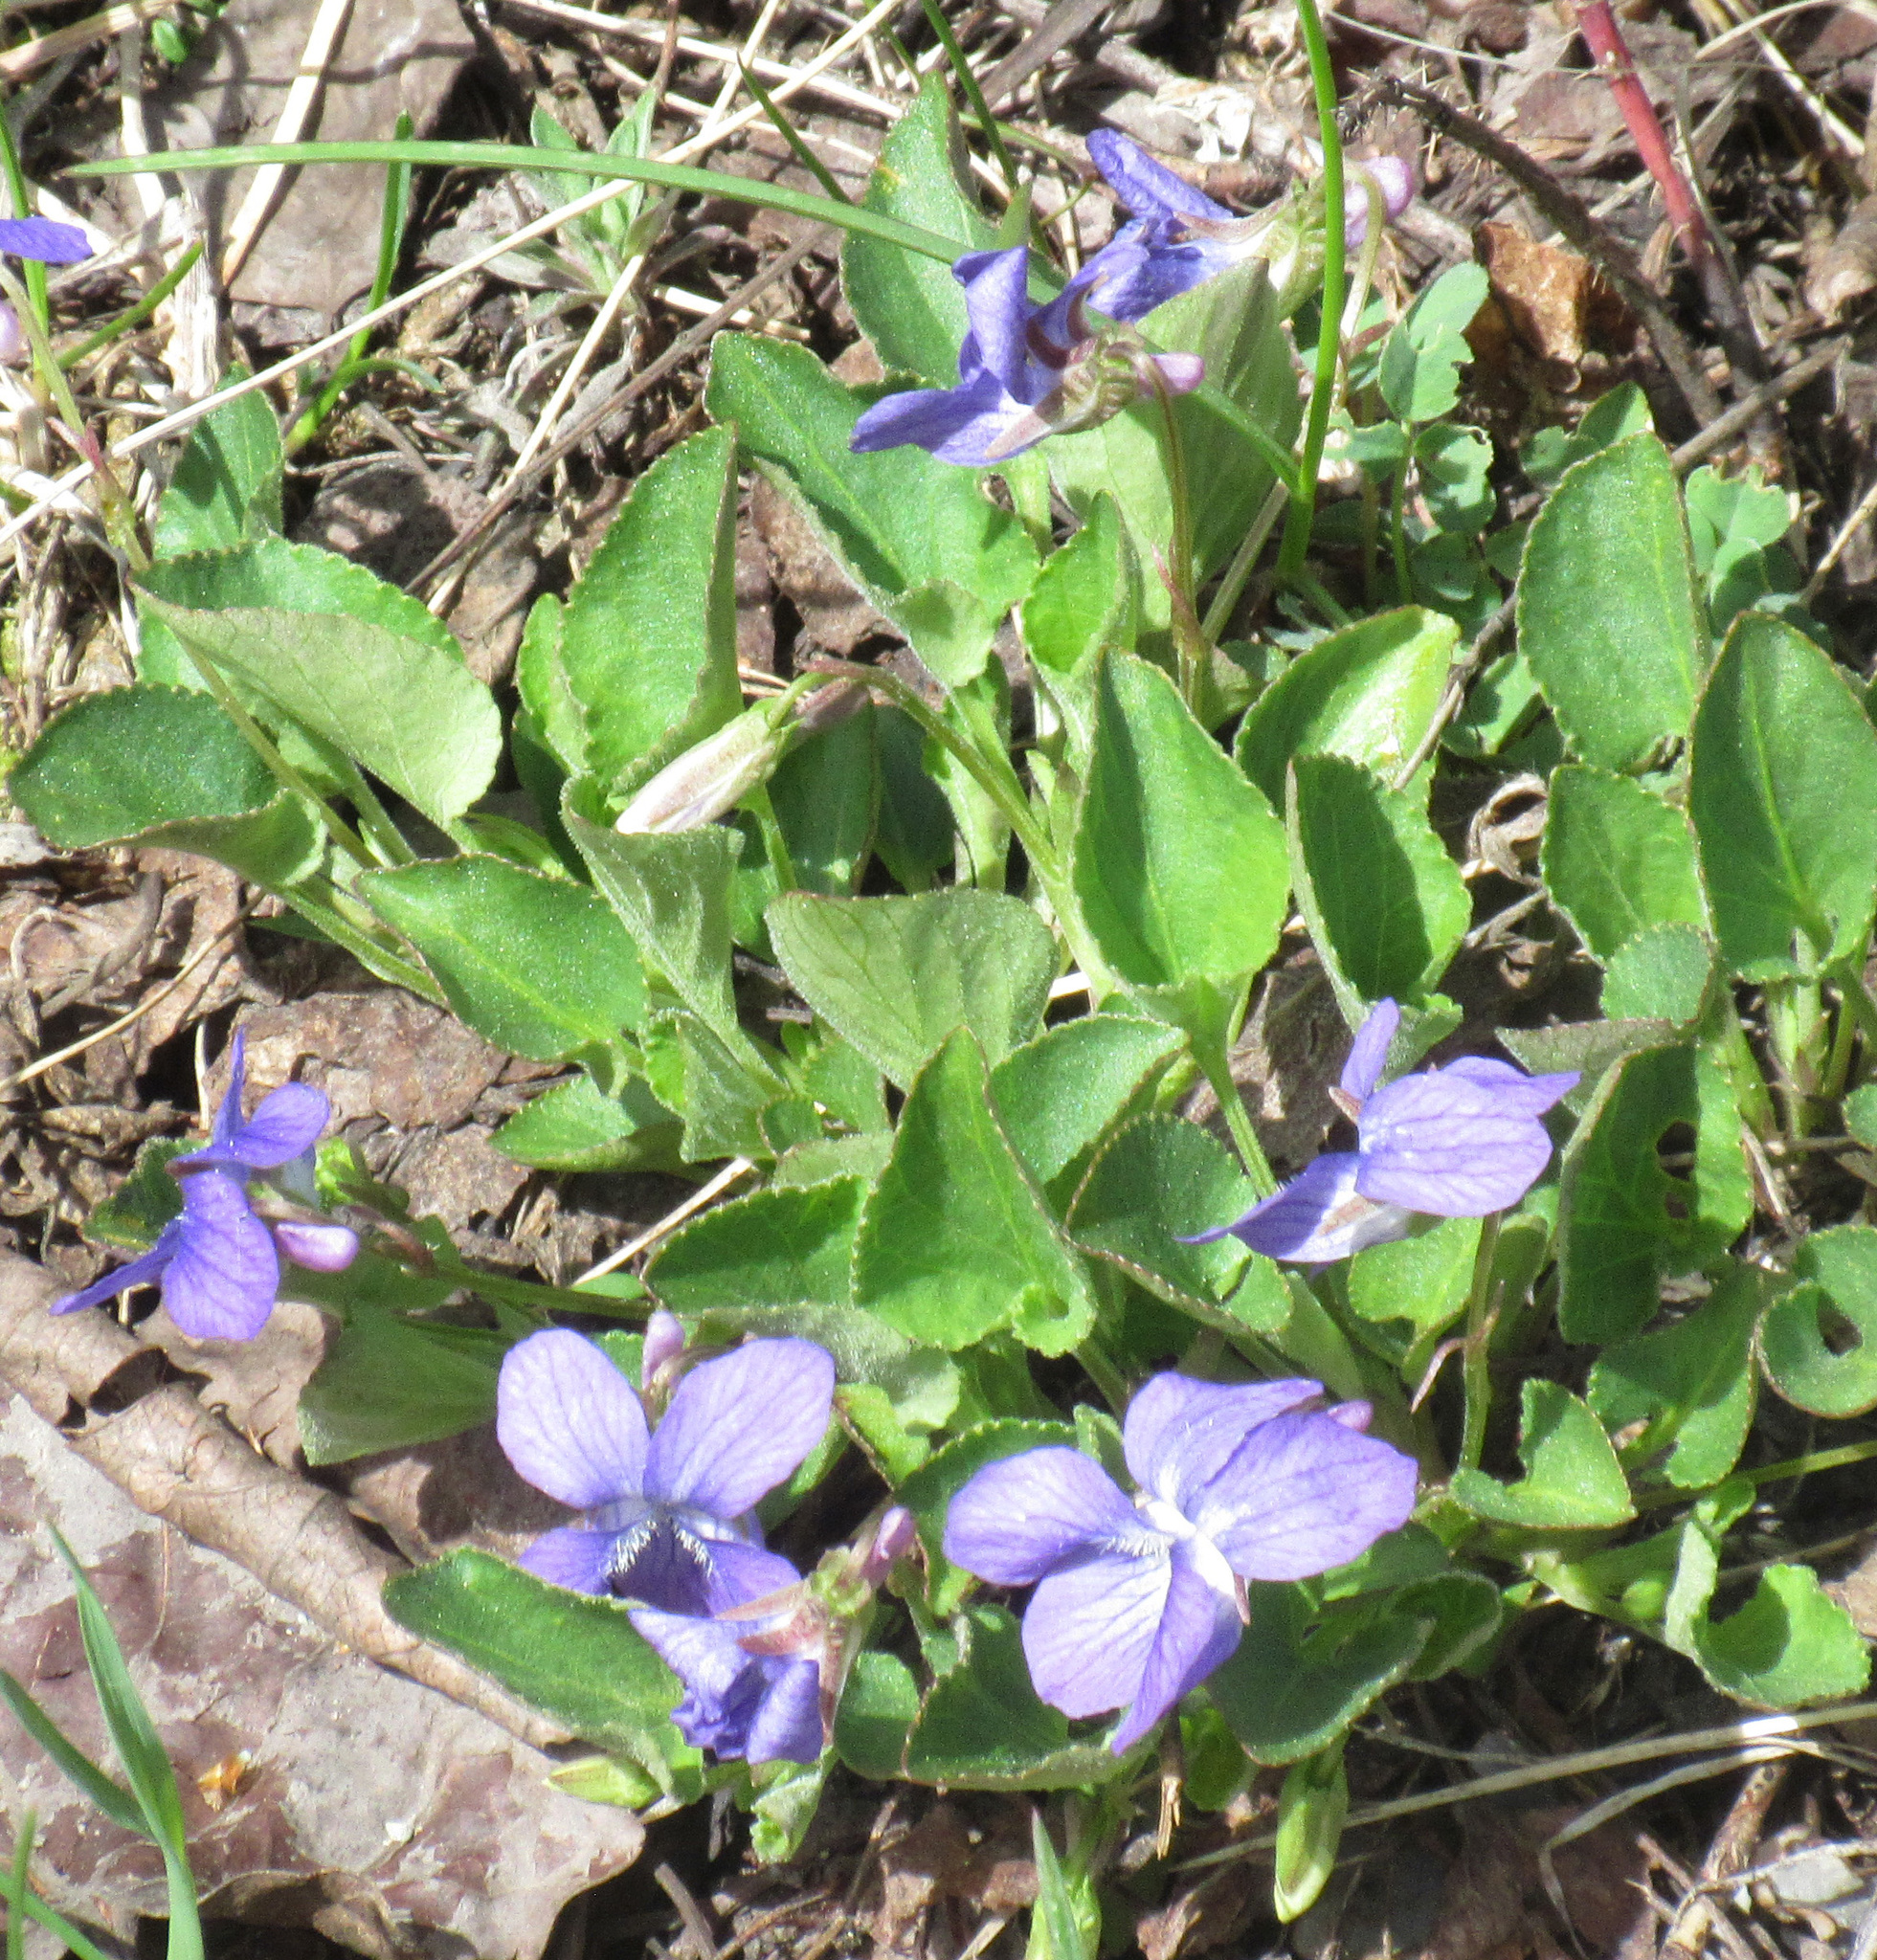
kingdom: Plantae
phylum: Tracheophyta
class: Magnoliopsida
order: Malpighiales
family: Violaceae
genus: Viola
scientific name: Viola adunca
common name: Sand violet
